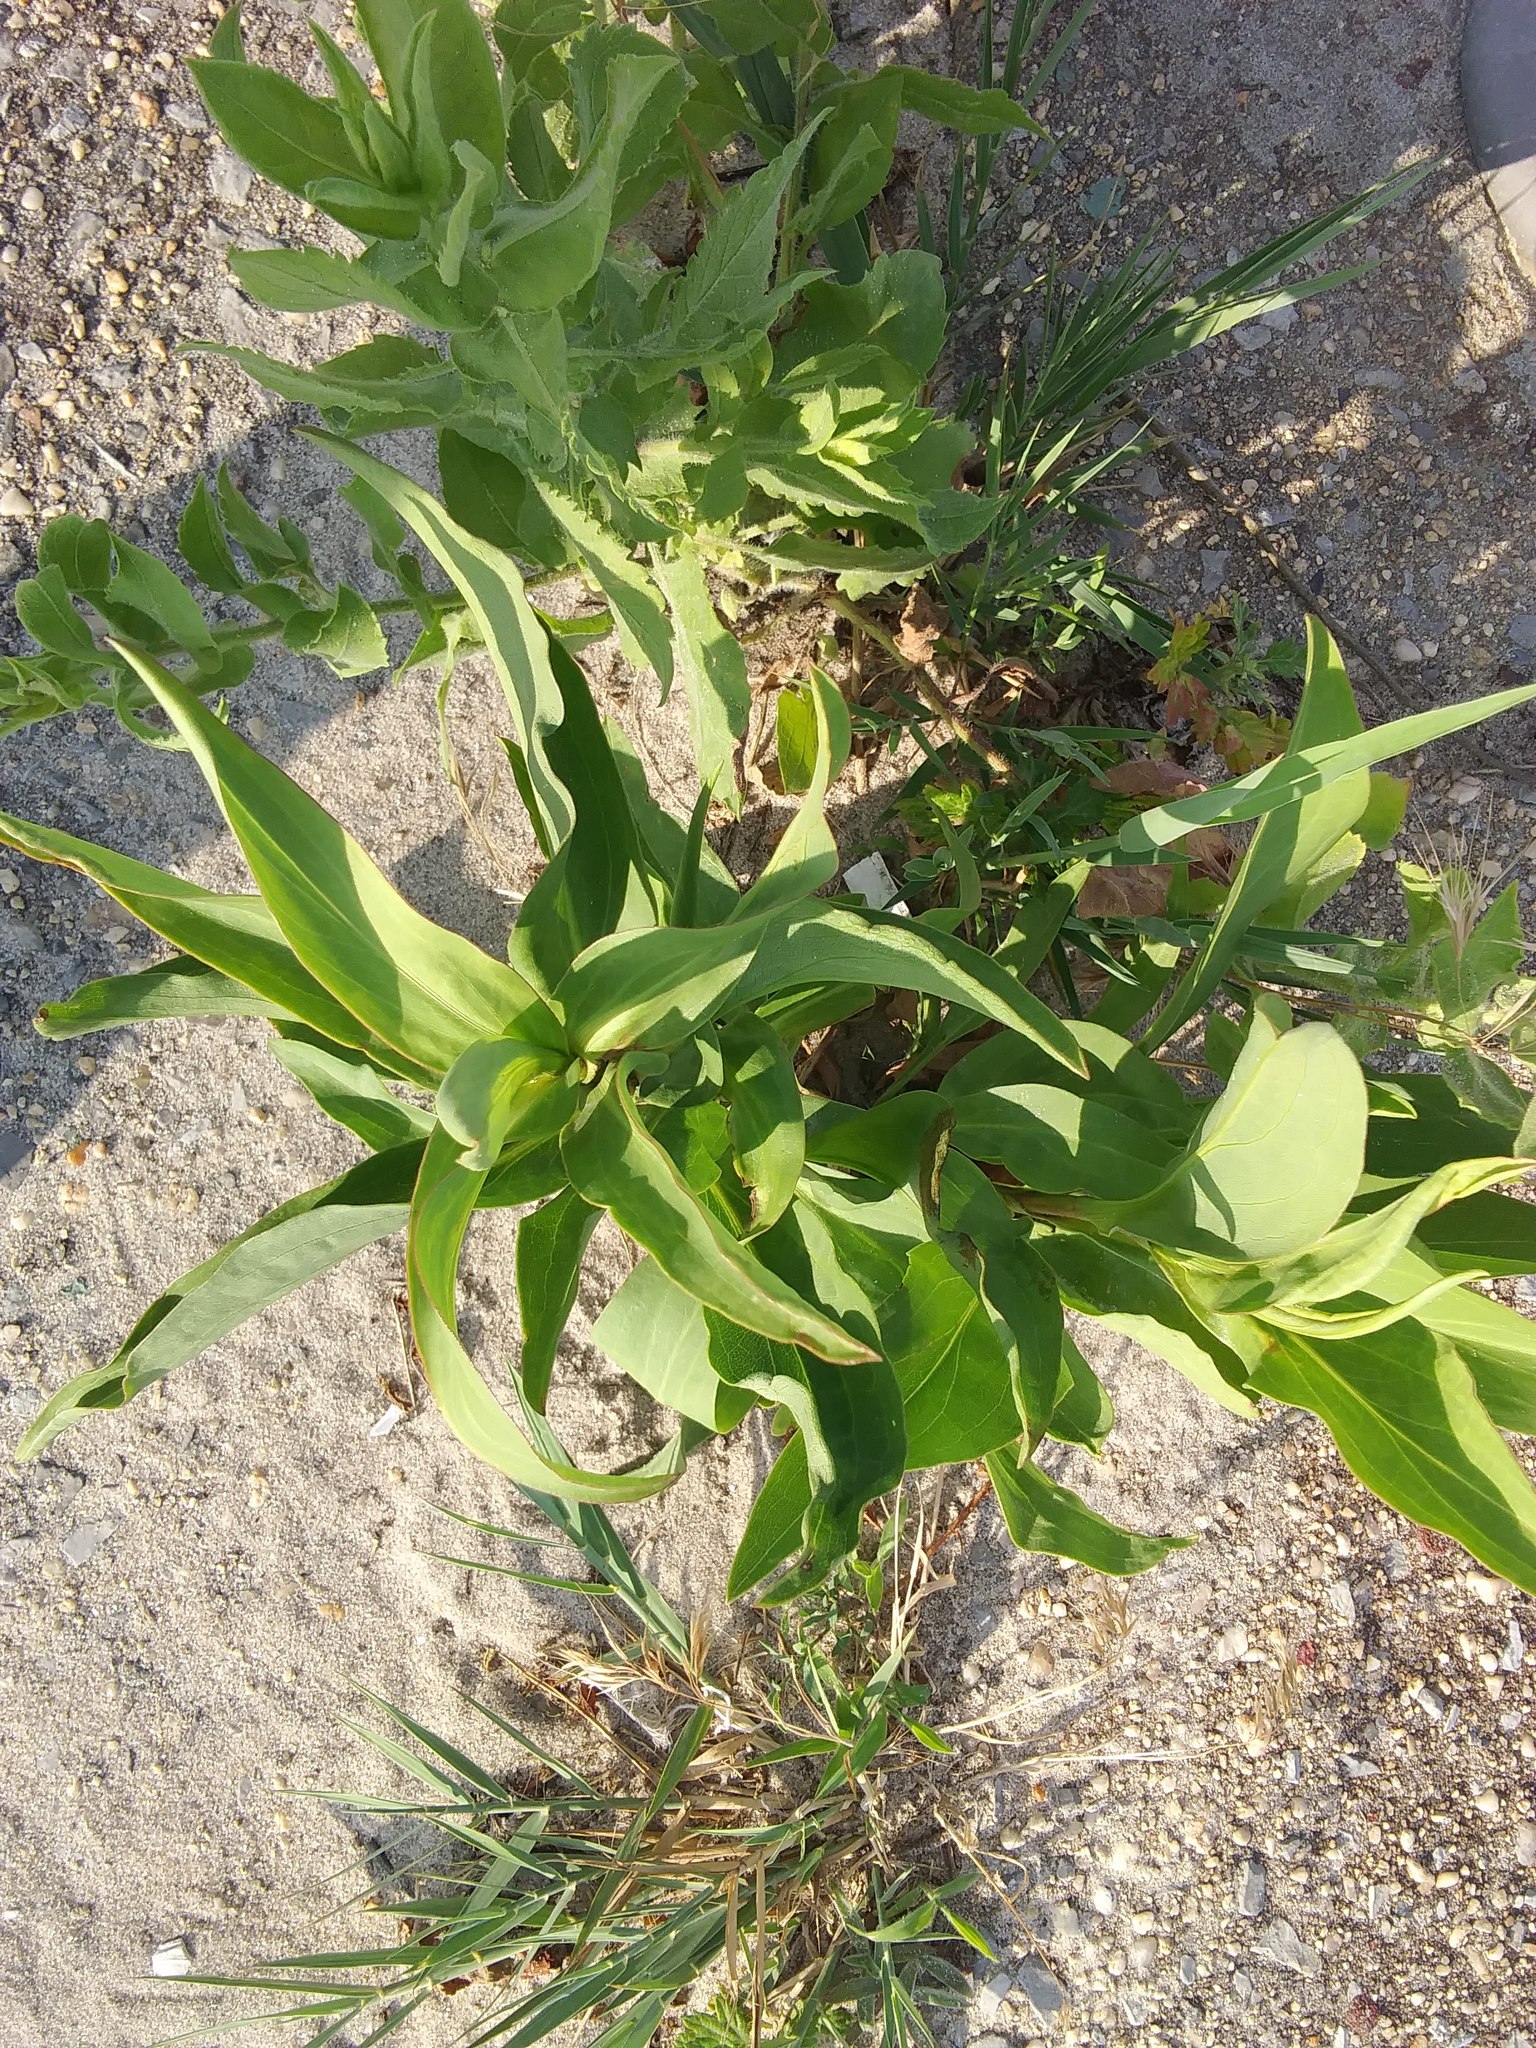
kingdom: Plantae
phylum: Tracheophyta
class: Magnoliopsida
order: Asterales
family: Asteraceae
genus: Solidago
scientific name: Solidago sempervirens
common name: Salt-marsh goldenrod
